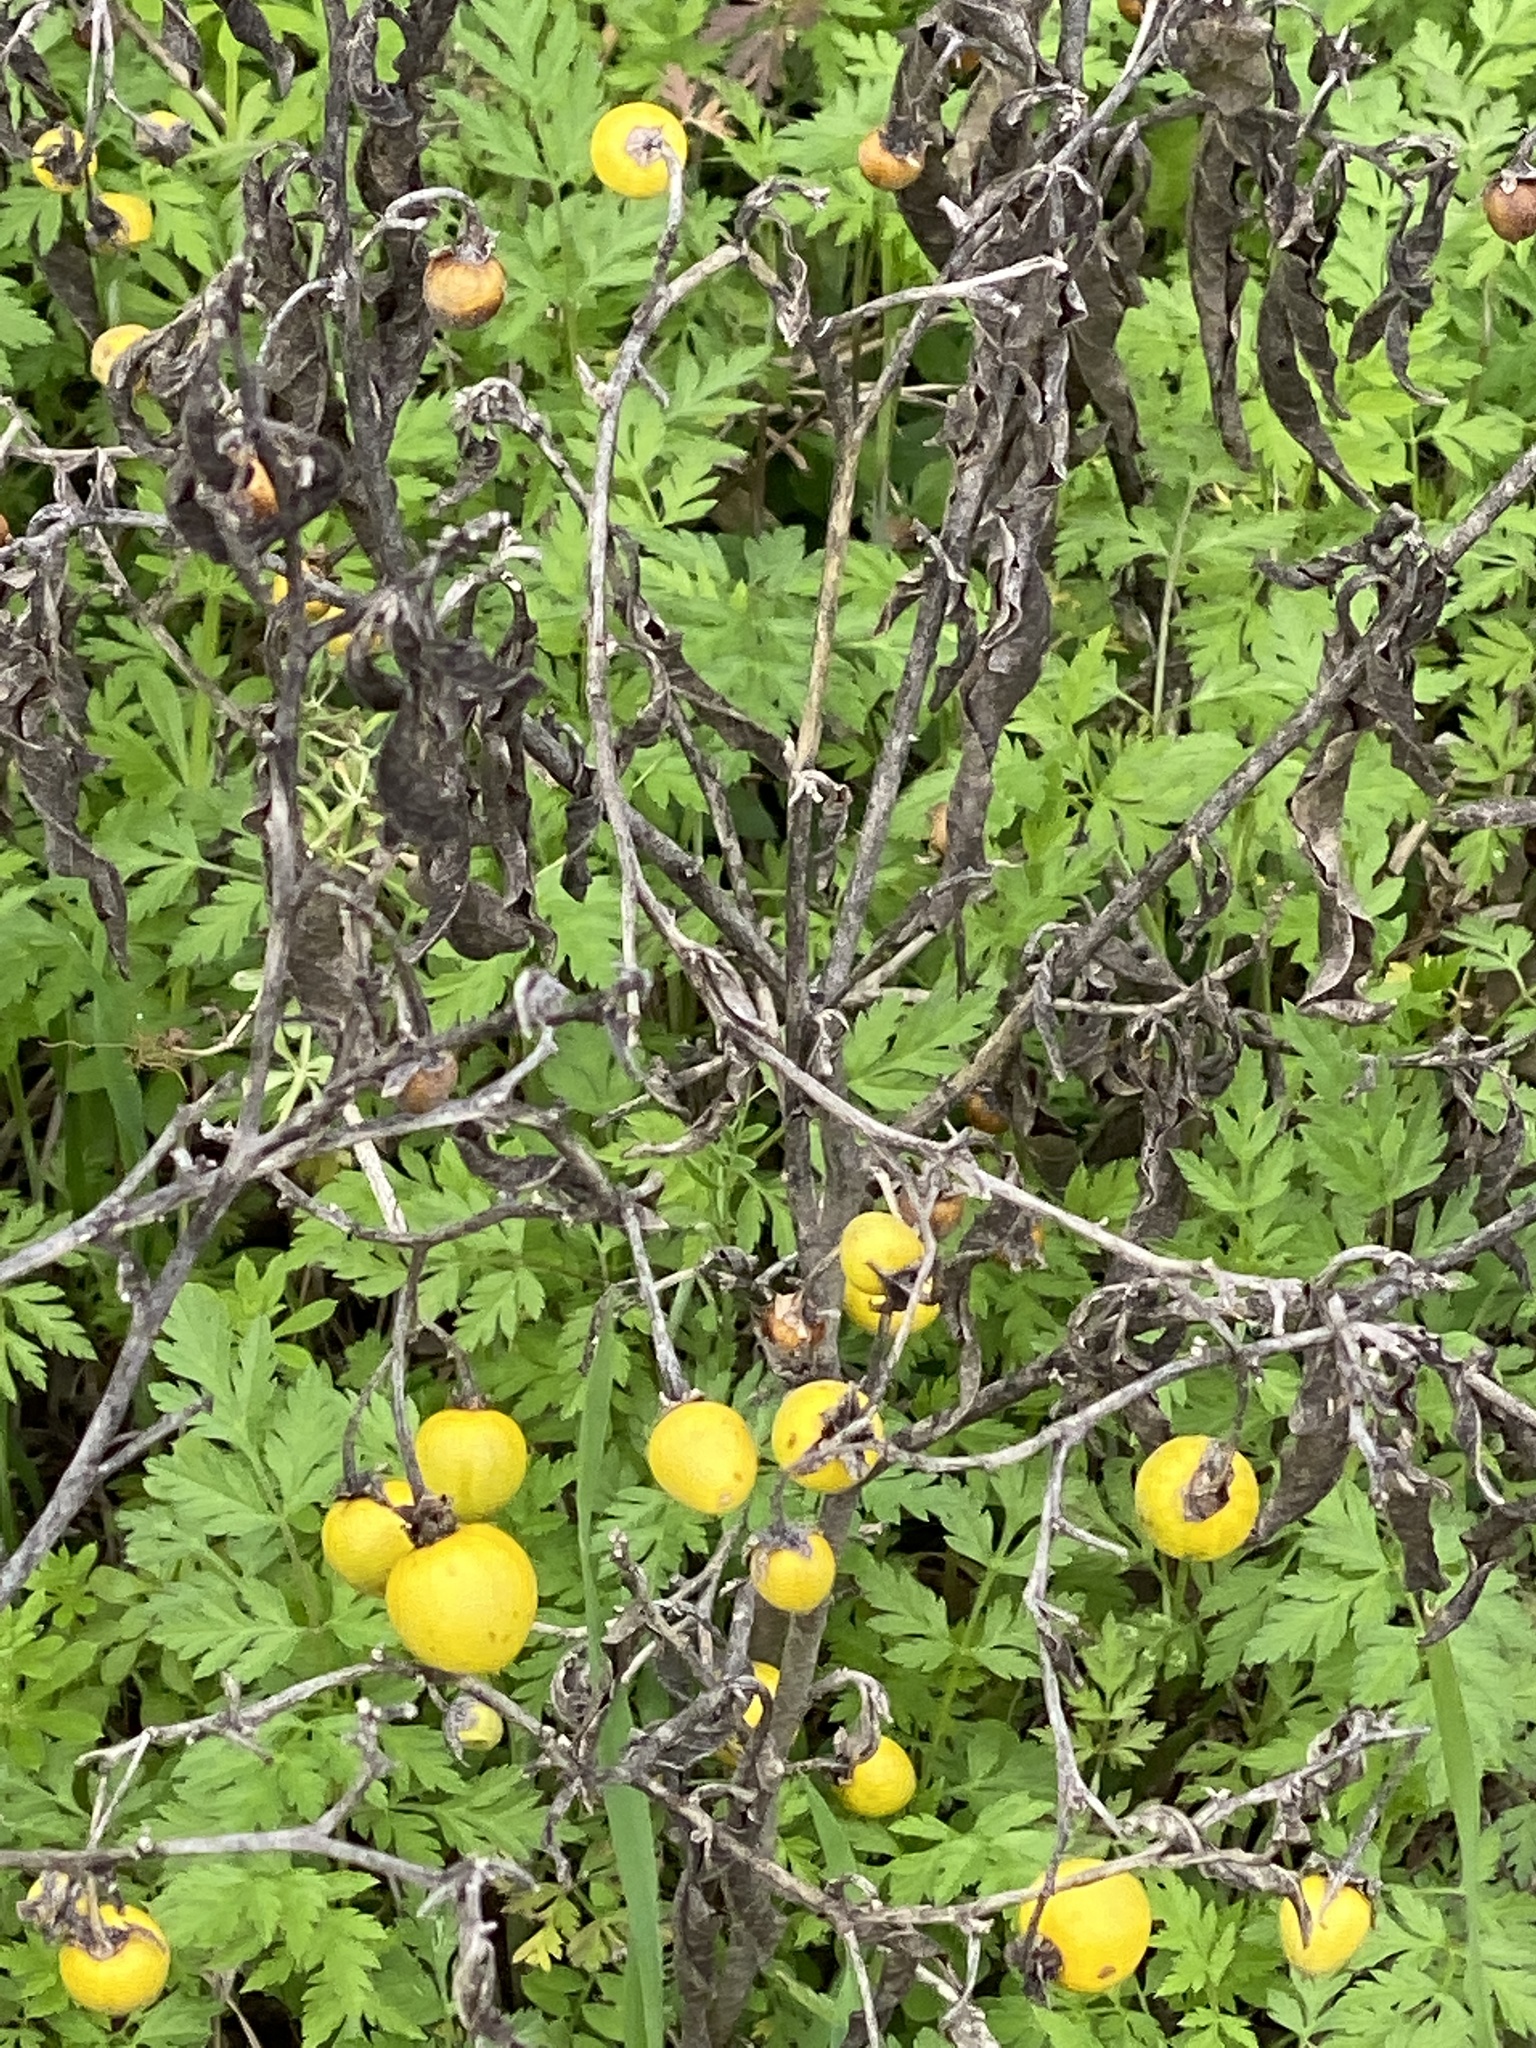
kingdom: Plantae
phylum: Tracheophyta
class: Magnoliopsida
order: Solanales
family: Solanaceae
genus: Solanum
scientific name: Solanum elaeagnifolium
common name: Silverleaf nightshade
